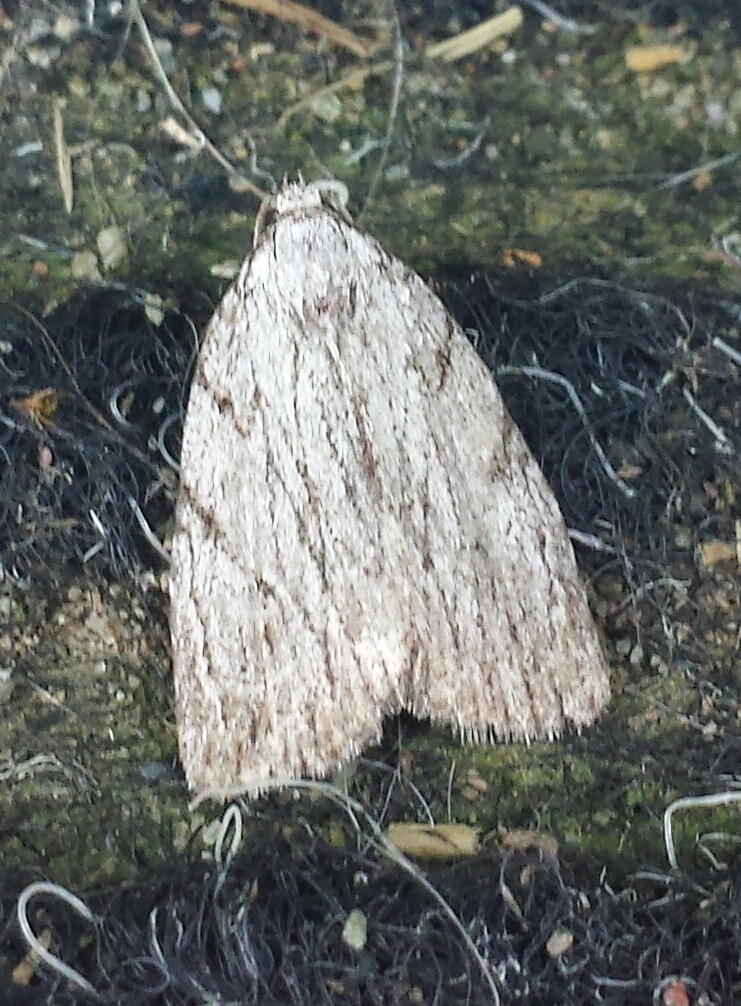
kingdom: Animalia
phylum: Arthropoda
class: Insecta
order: Lepidoptera
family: Noctuidae
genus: Balsa
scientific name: Balsa tristrigella
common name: Three-lined balsa moth
